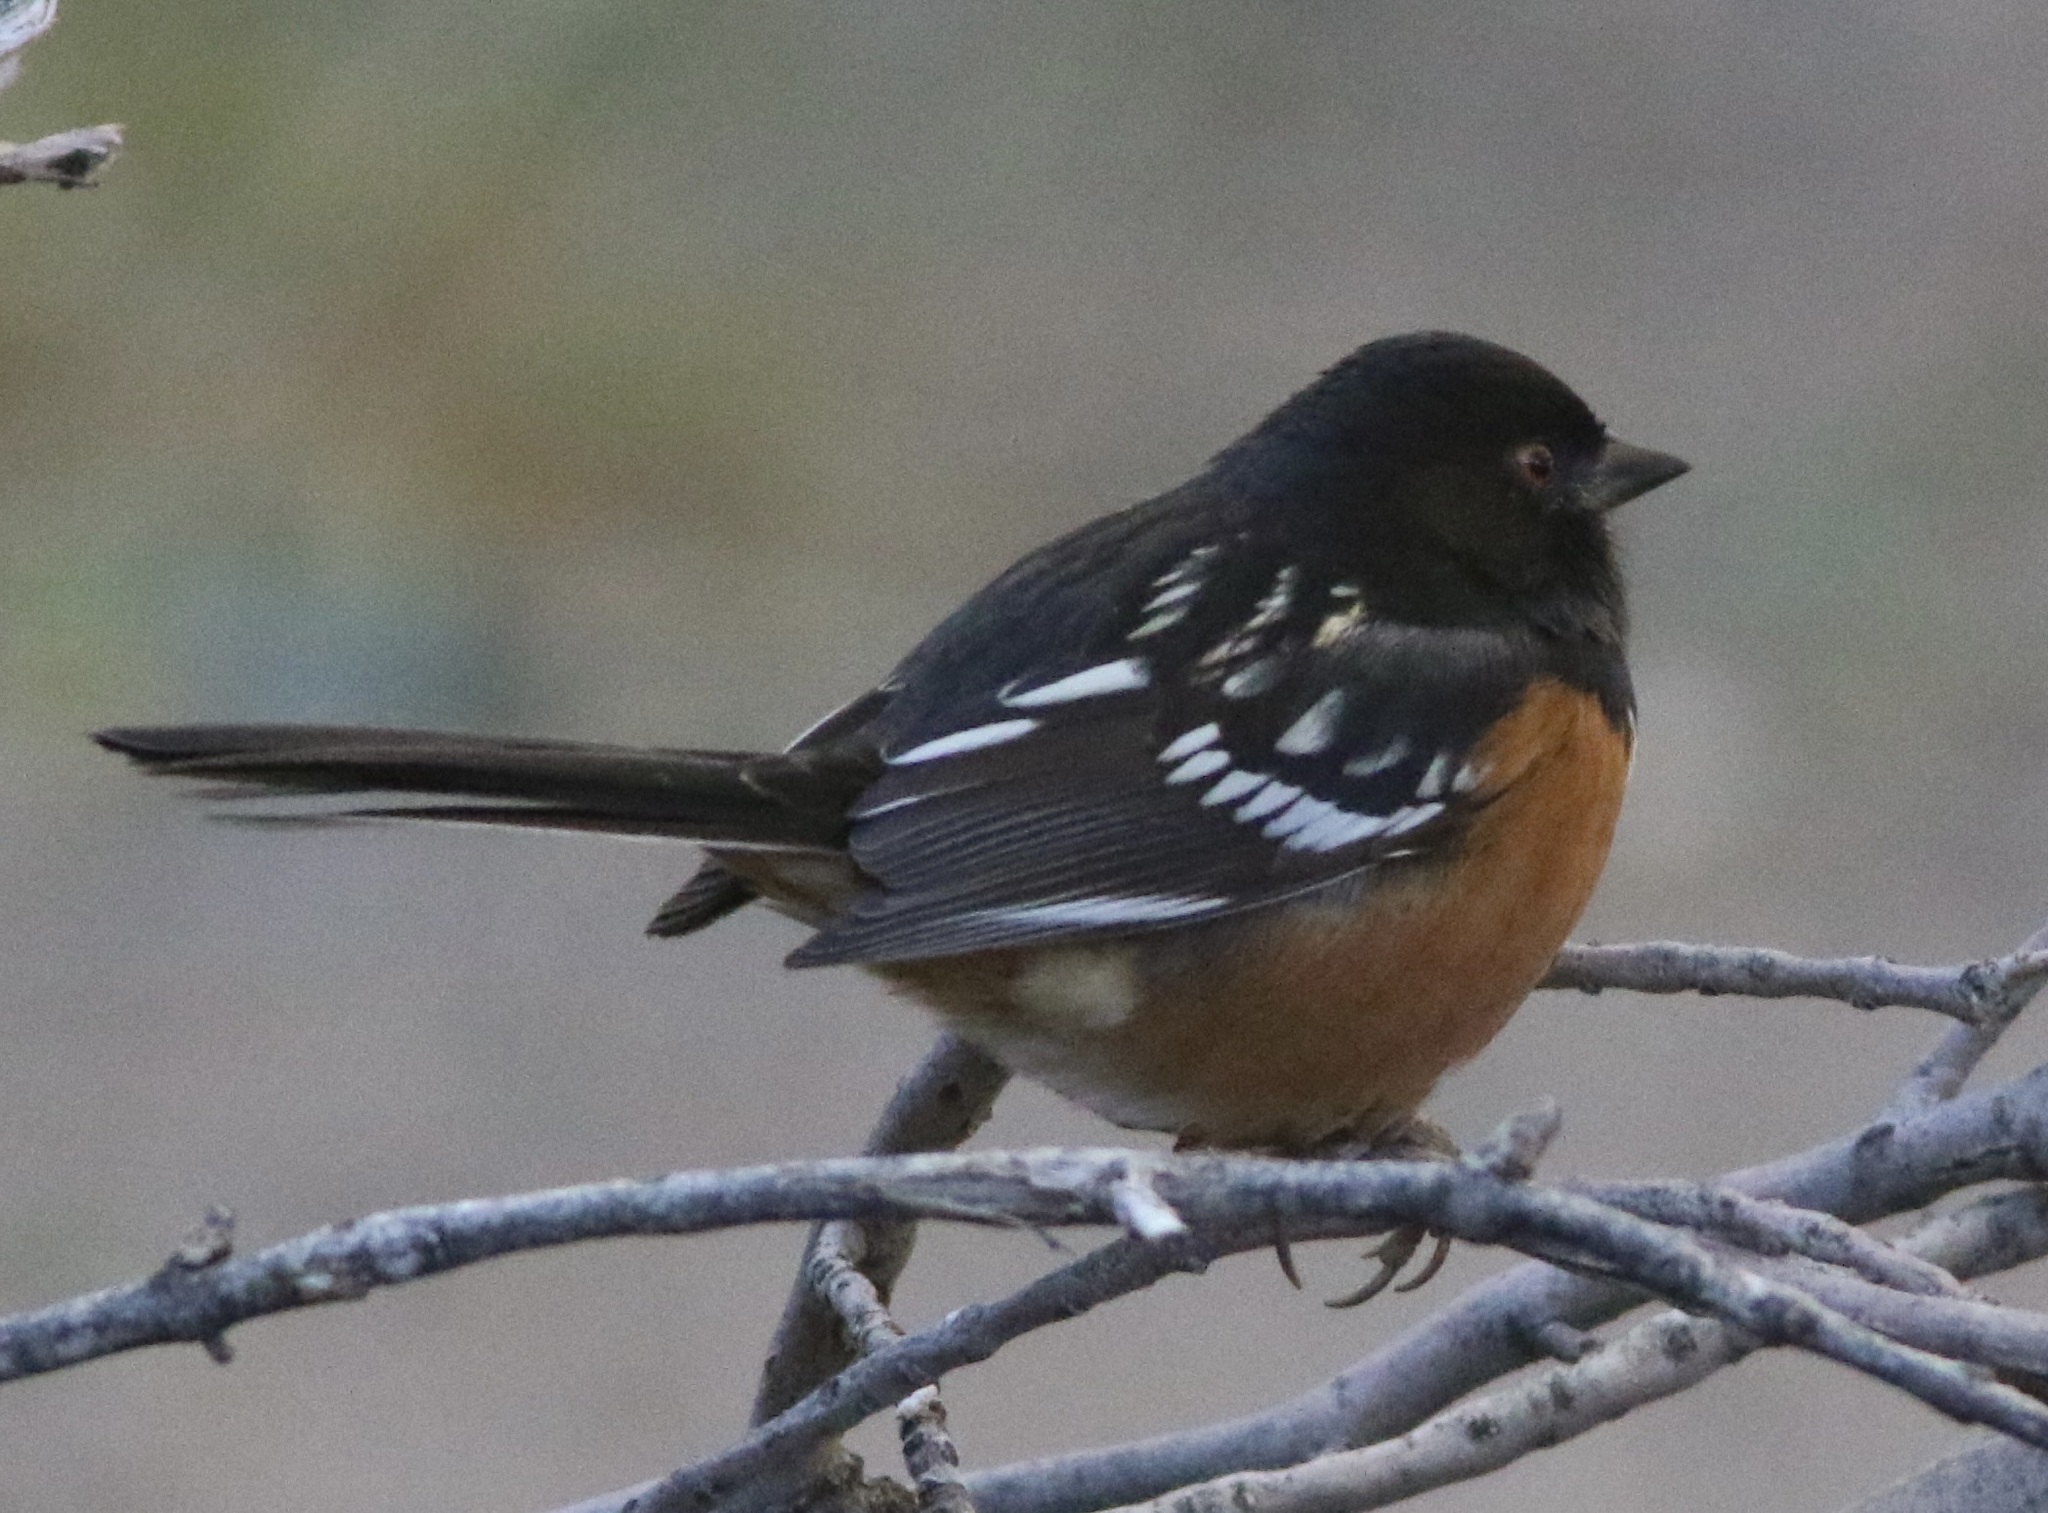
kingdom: Animalia
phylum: Chordata
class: Aves
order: Passeriformes
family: Passerellidae
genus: Pipilo
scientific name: Pipilo maculatus
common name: Spotted towhee
